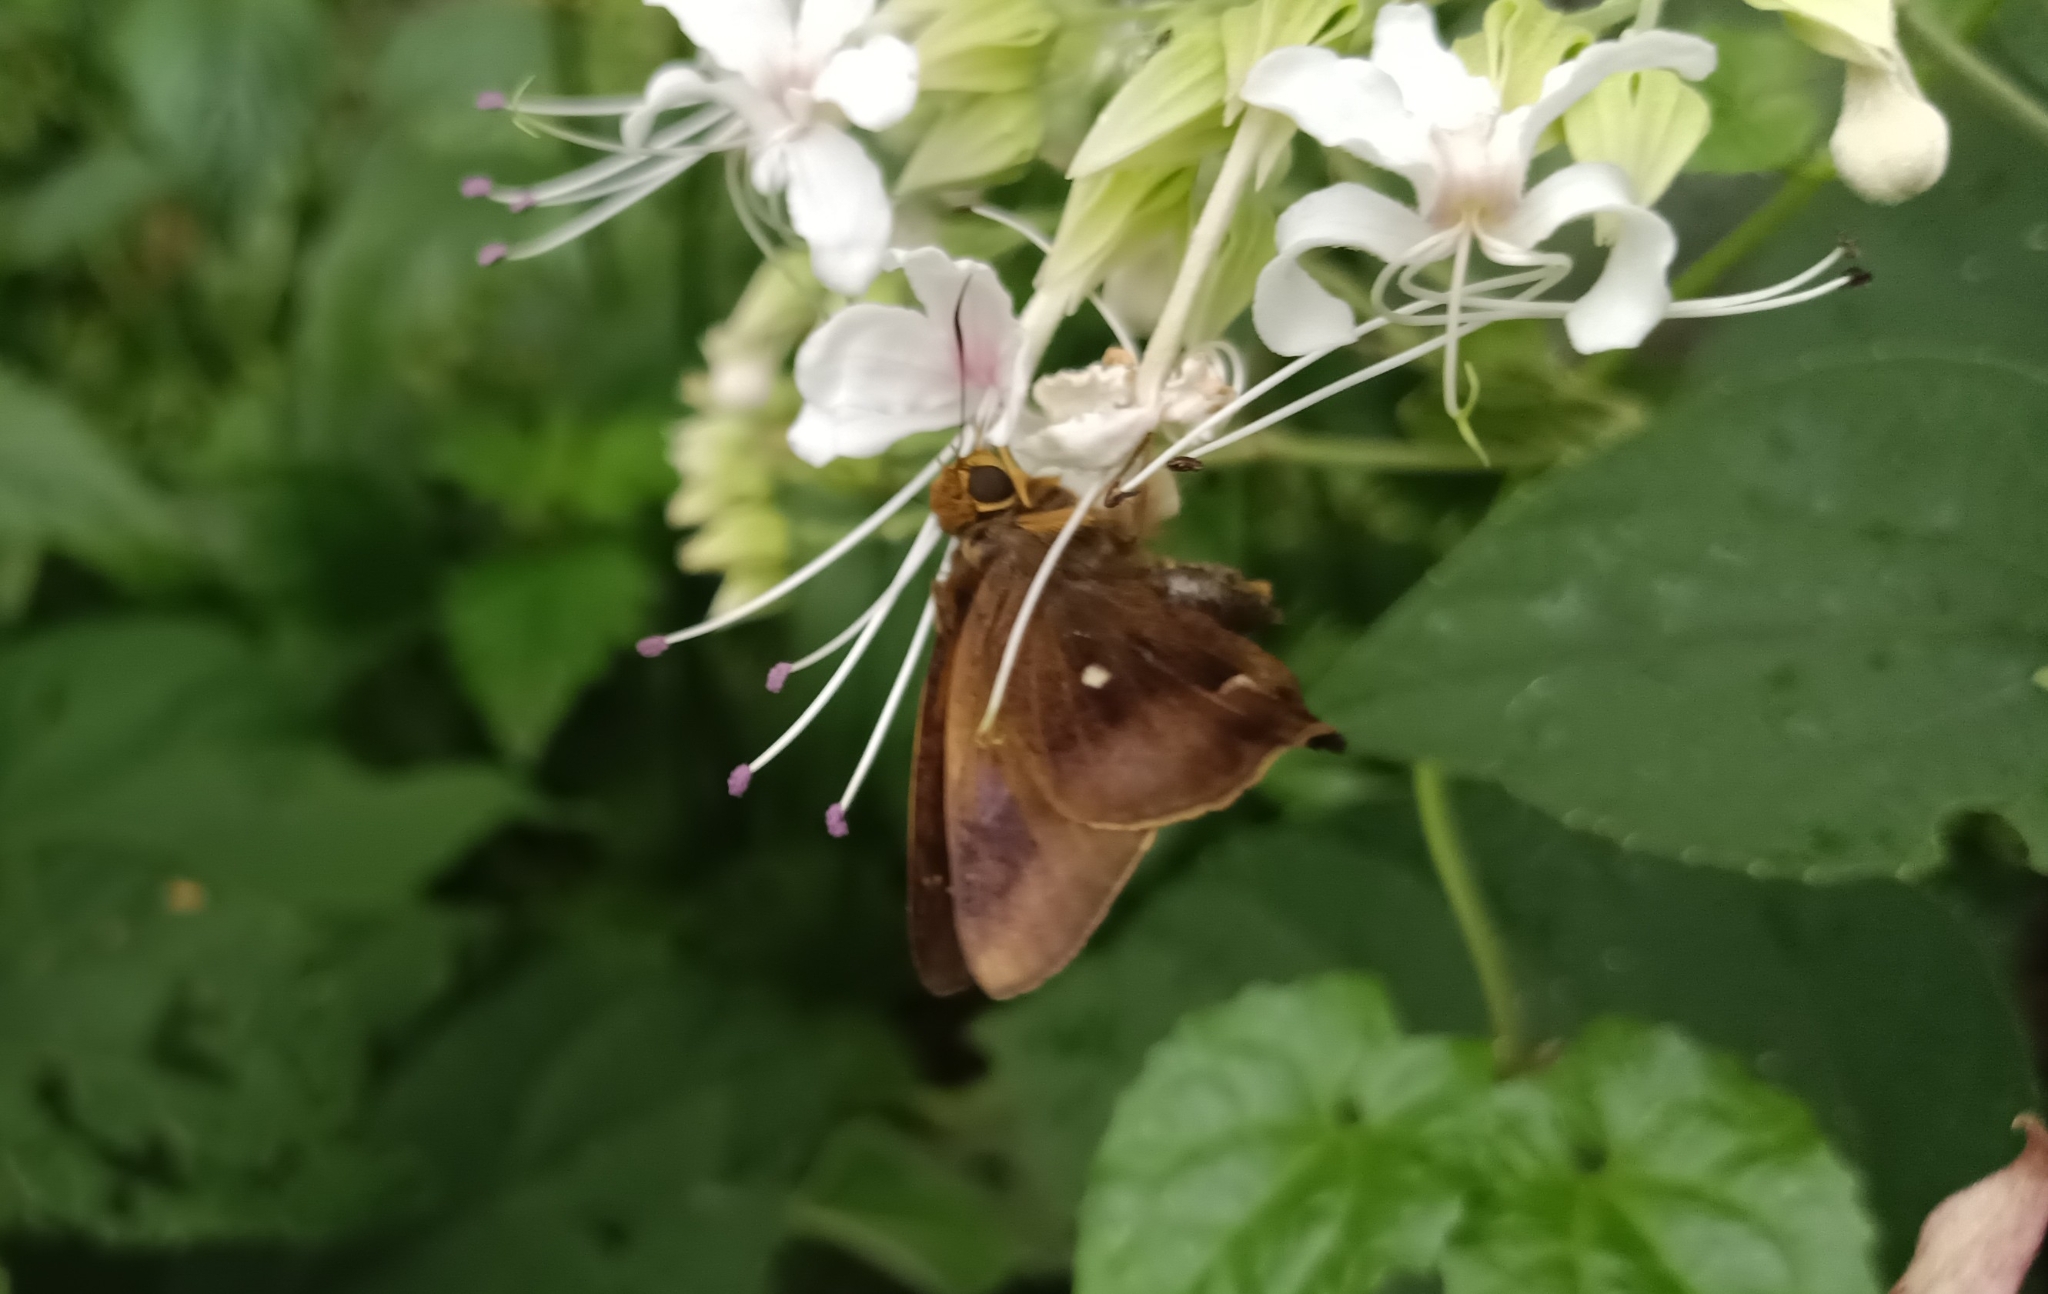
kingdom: Animalia
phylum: Arthropoda
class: Insecta
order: Lepidoptera
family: Hesperiidae
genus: Hasora
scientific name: Hasora badra
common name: Common awl
